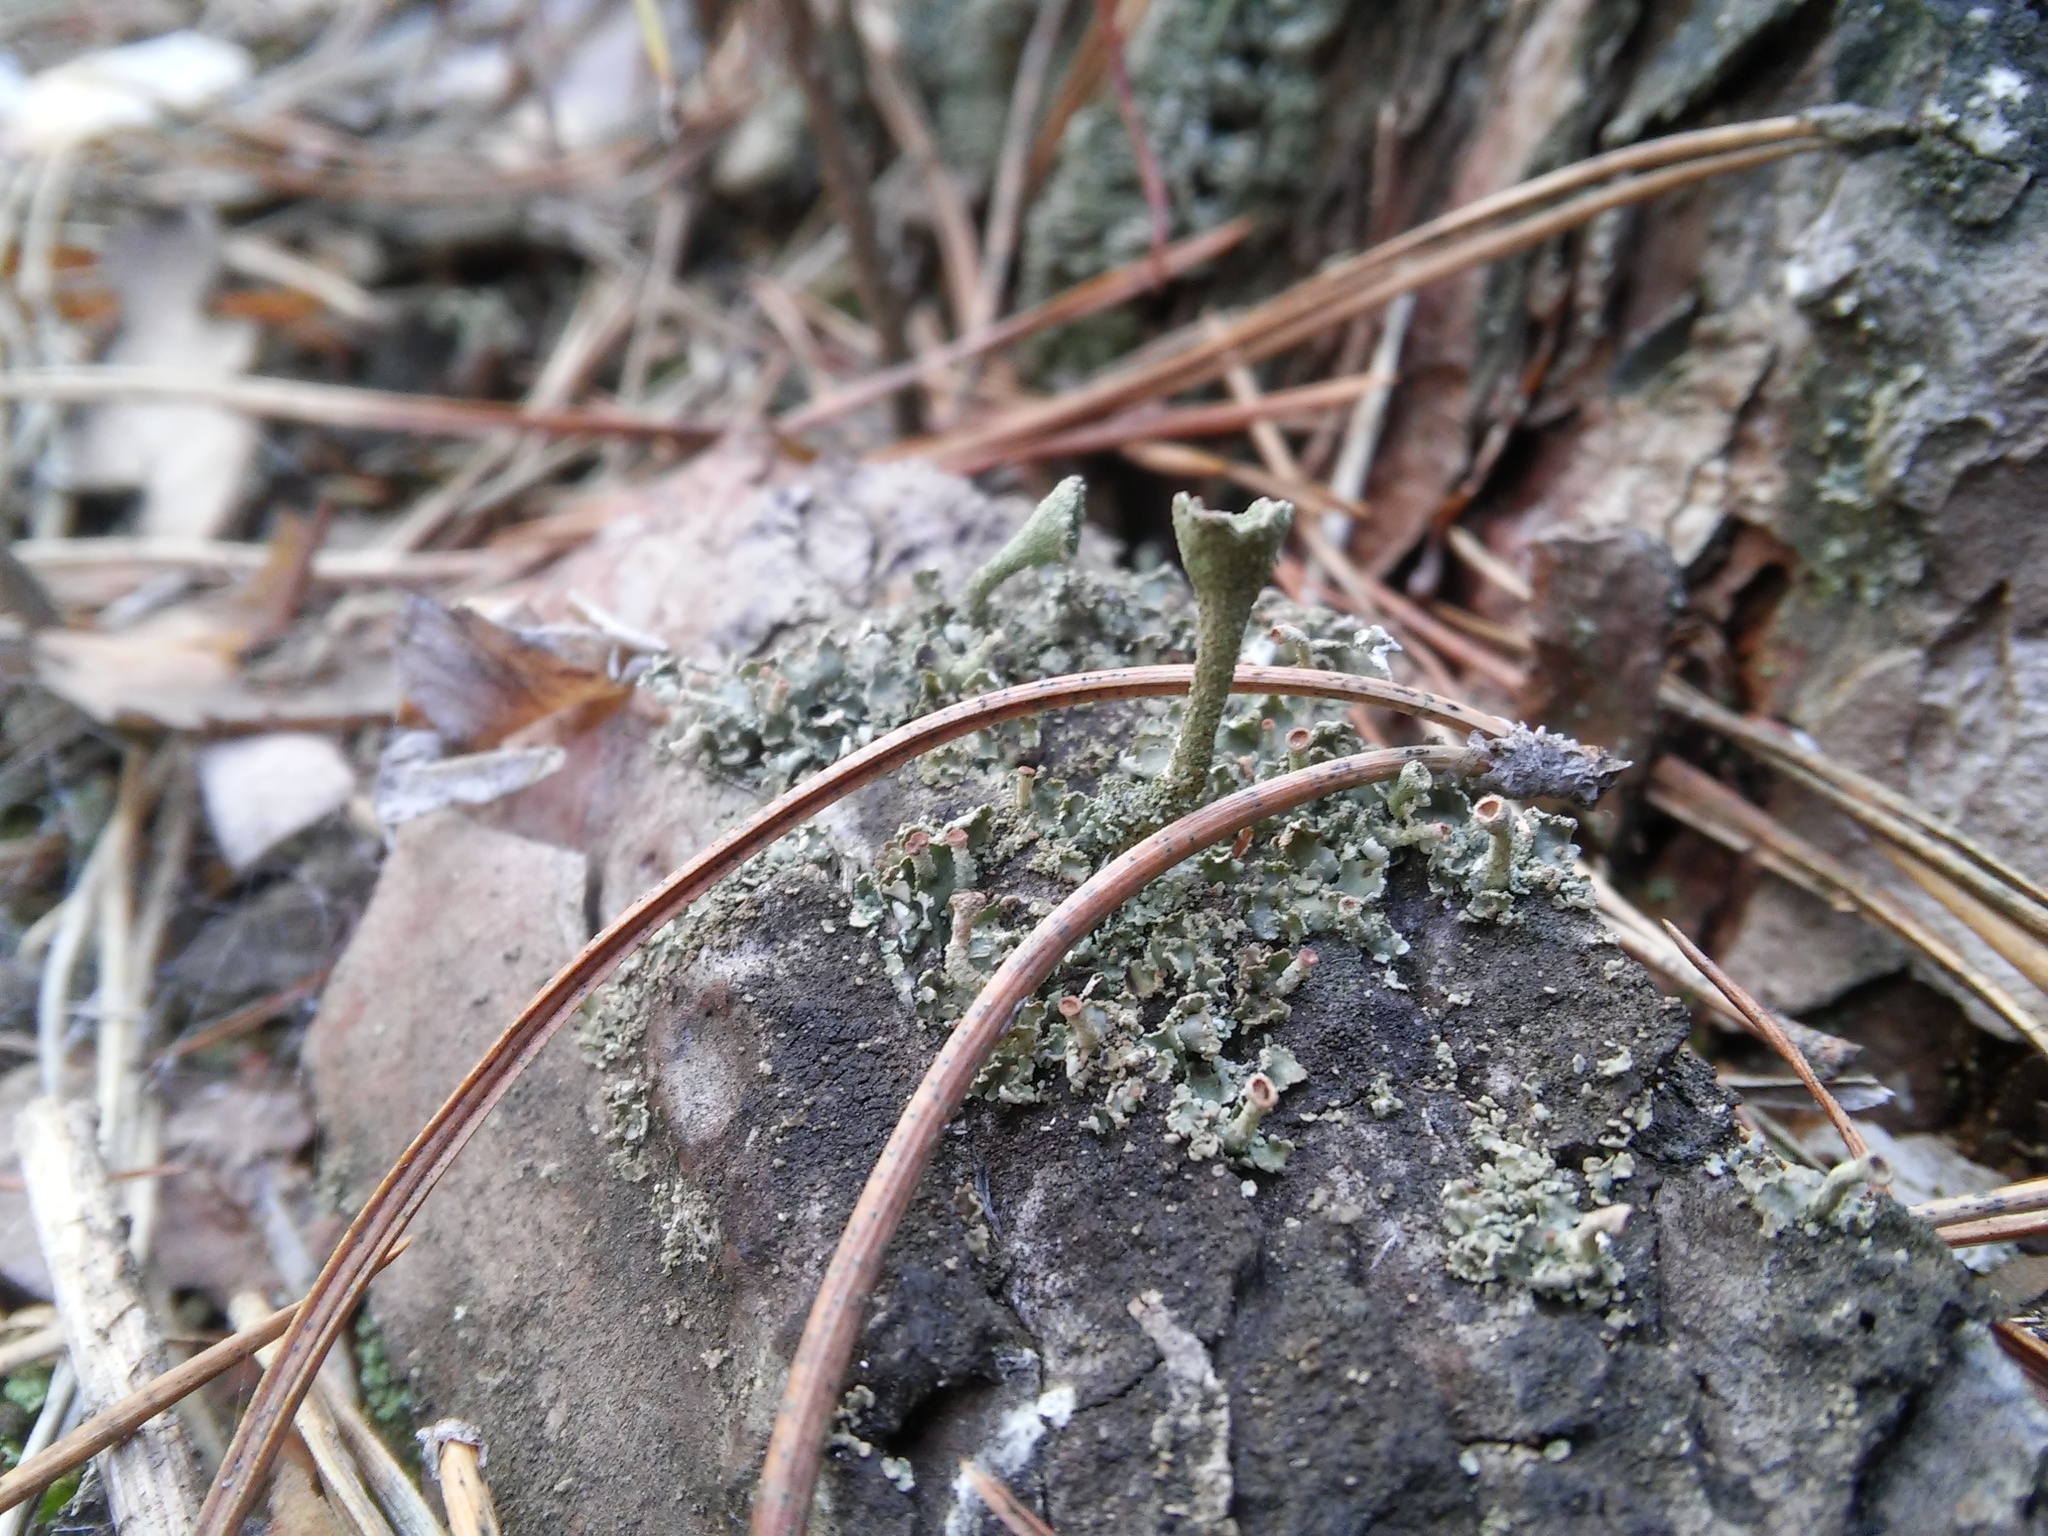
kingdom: Fungi
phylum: Ascomycota
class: Lecanoromycetes
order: Lecanorales
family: Cladoniaceae
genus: Cladonia
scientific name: Cladonia fimbriata
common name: Powdered trumpet lichen
